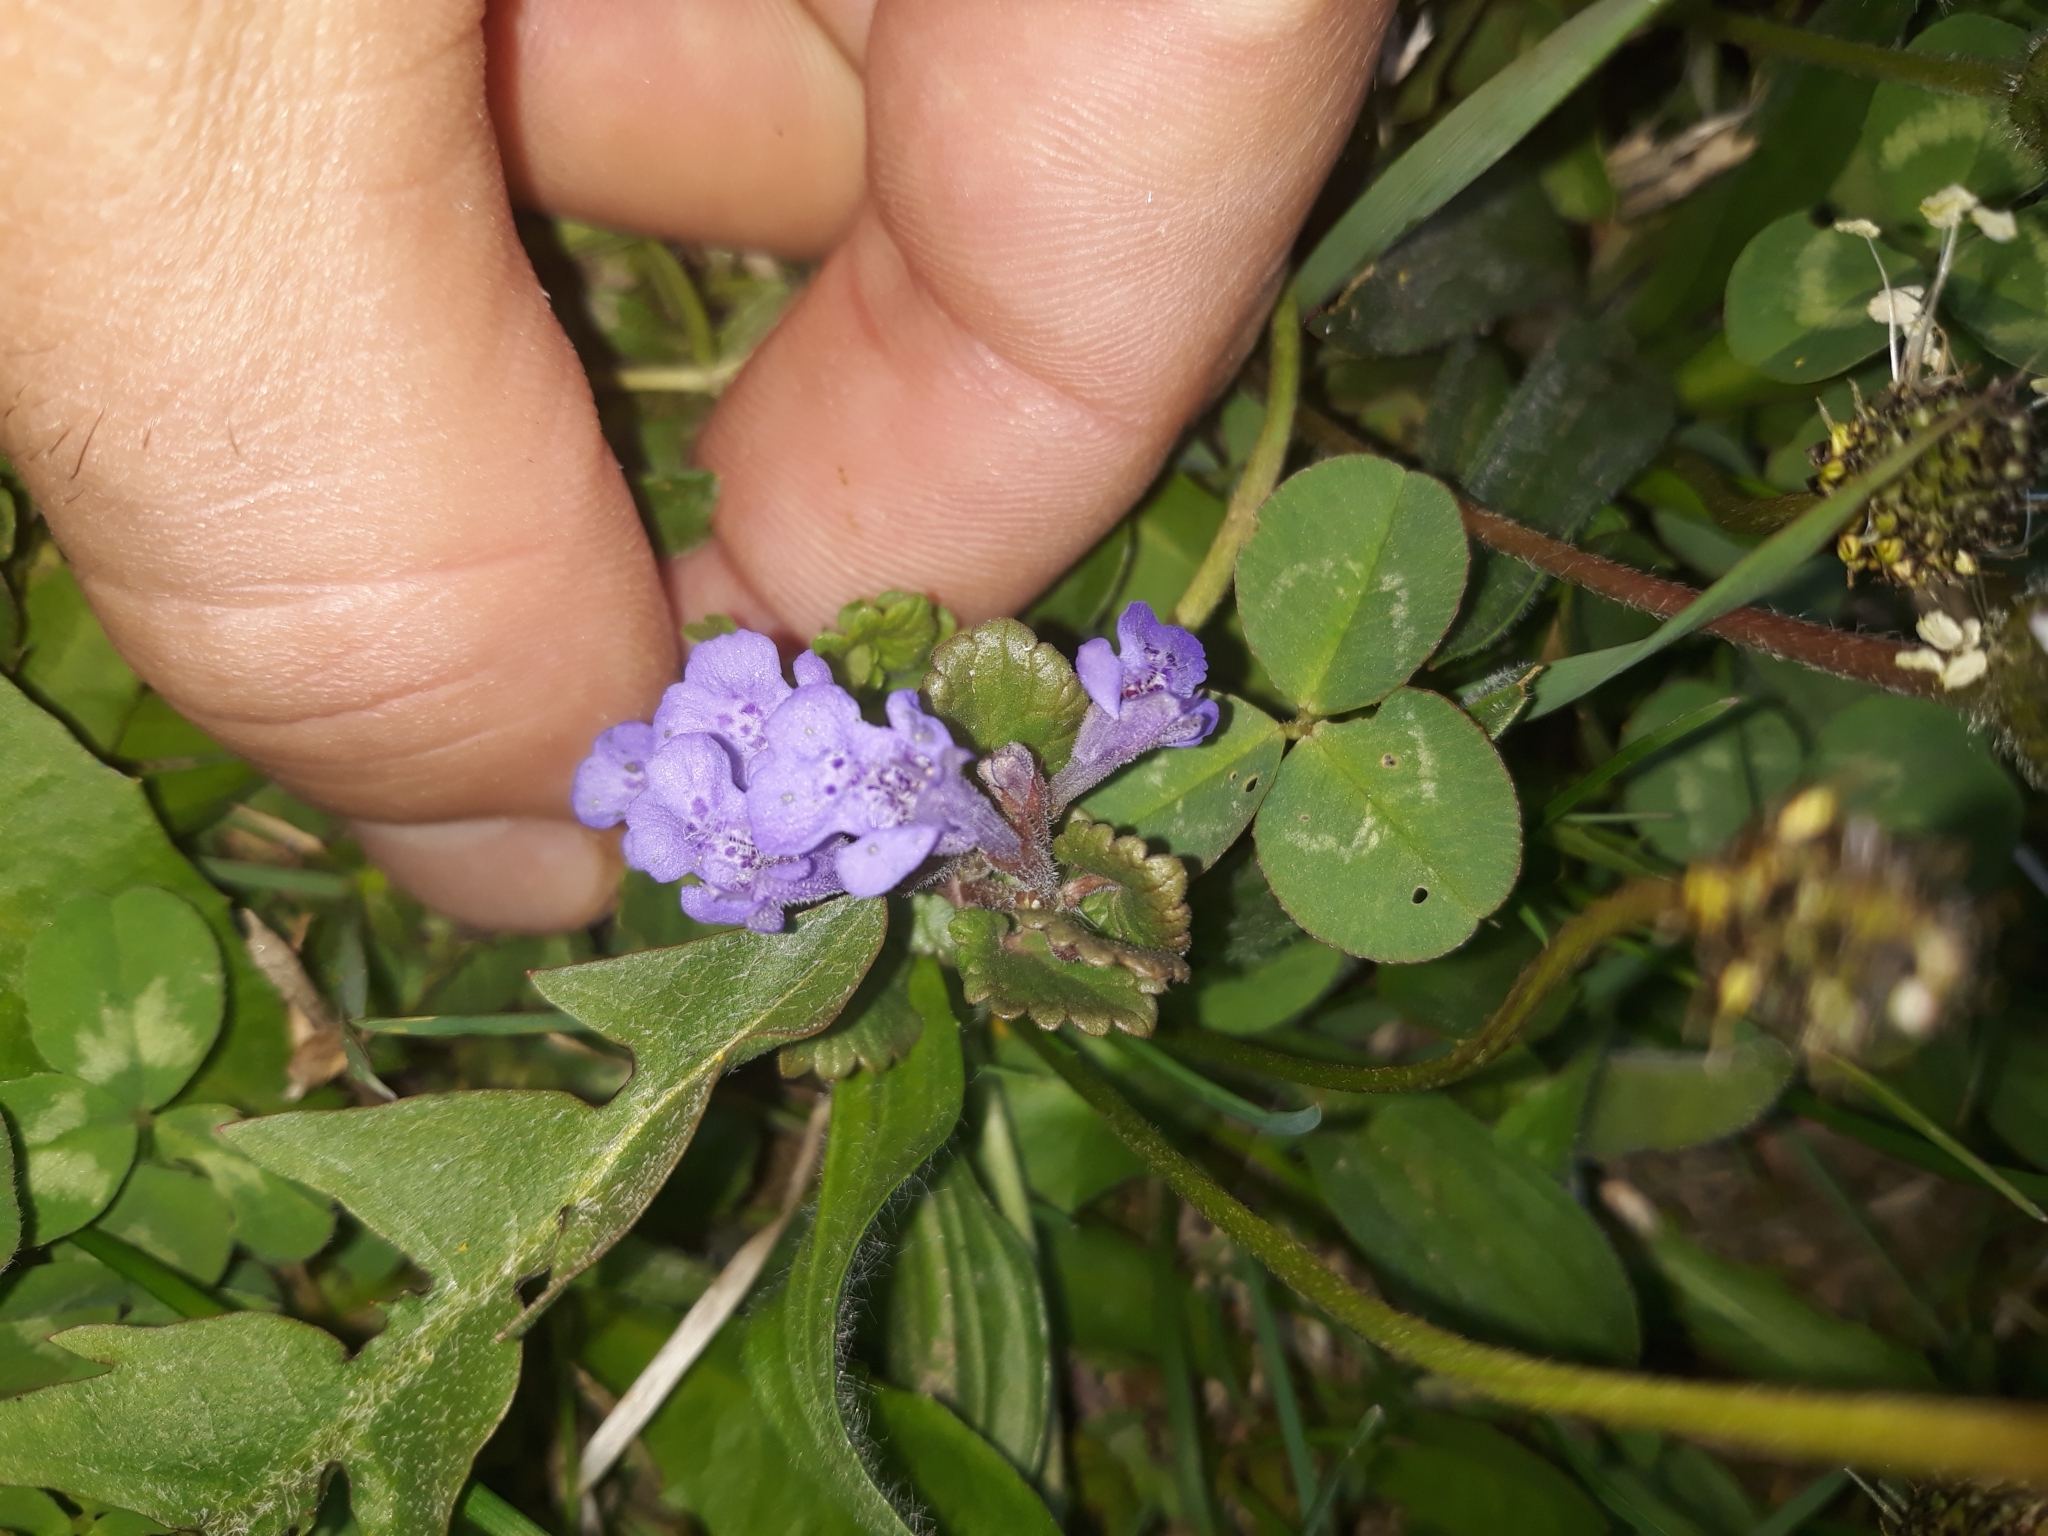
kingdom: Plantae
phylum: Tracheophyta
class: Magnoliopsida
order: Lamiales
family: Lamiaceae
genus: Glechoma
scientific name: Glechoma hederacea
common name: Ground ivy
